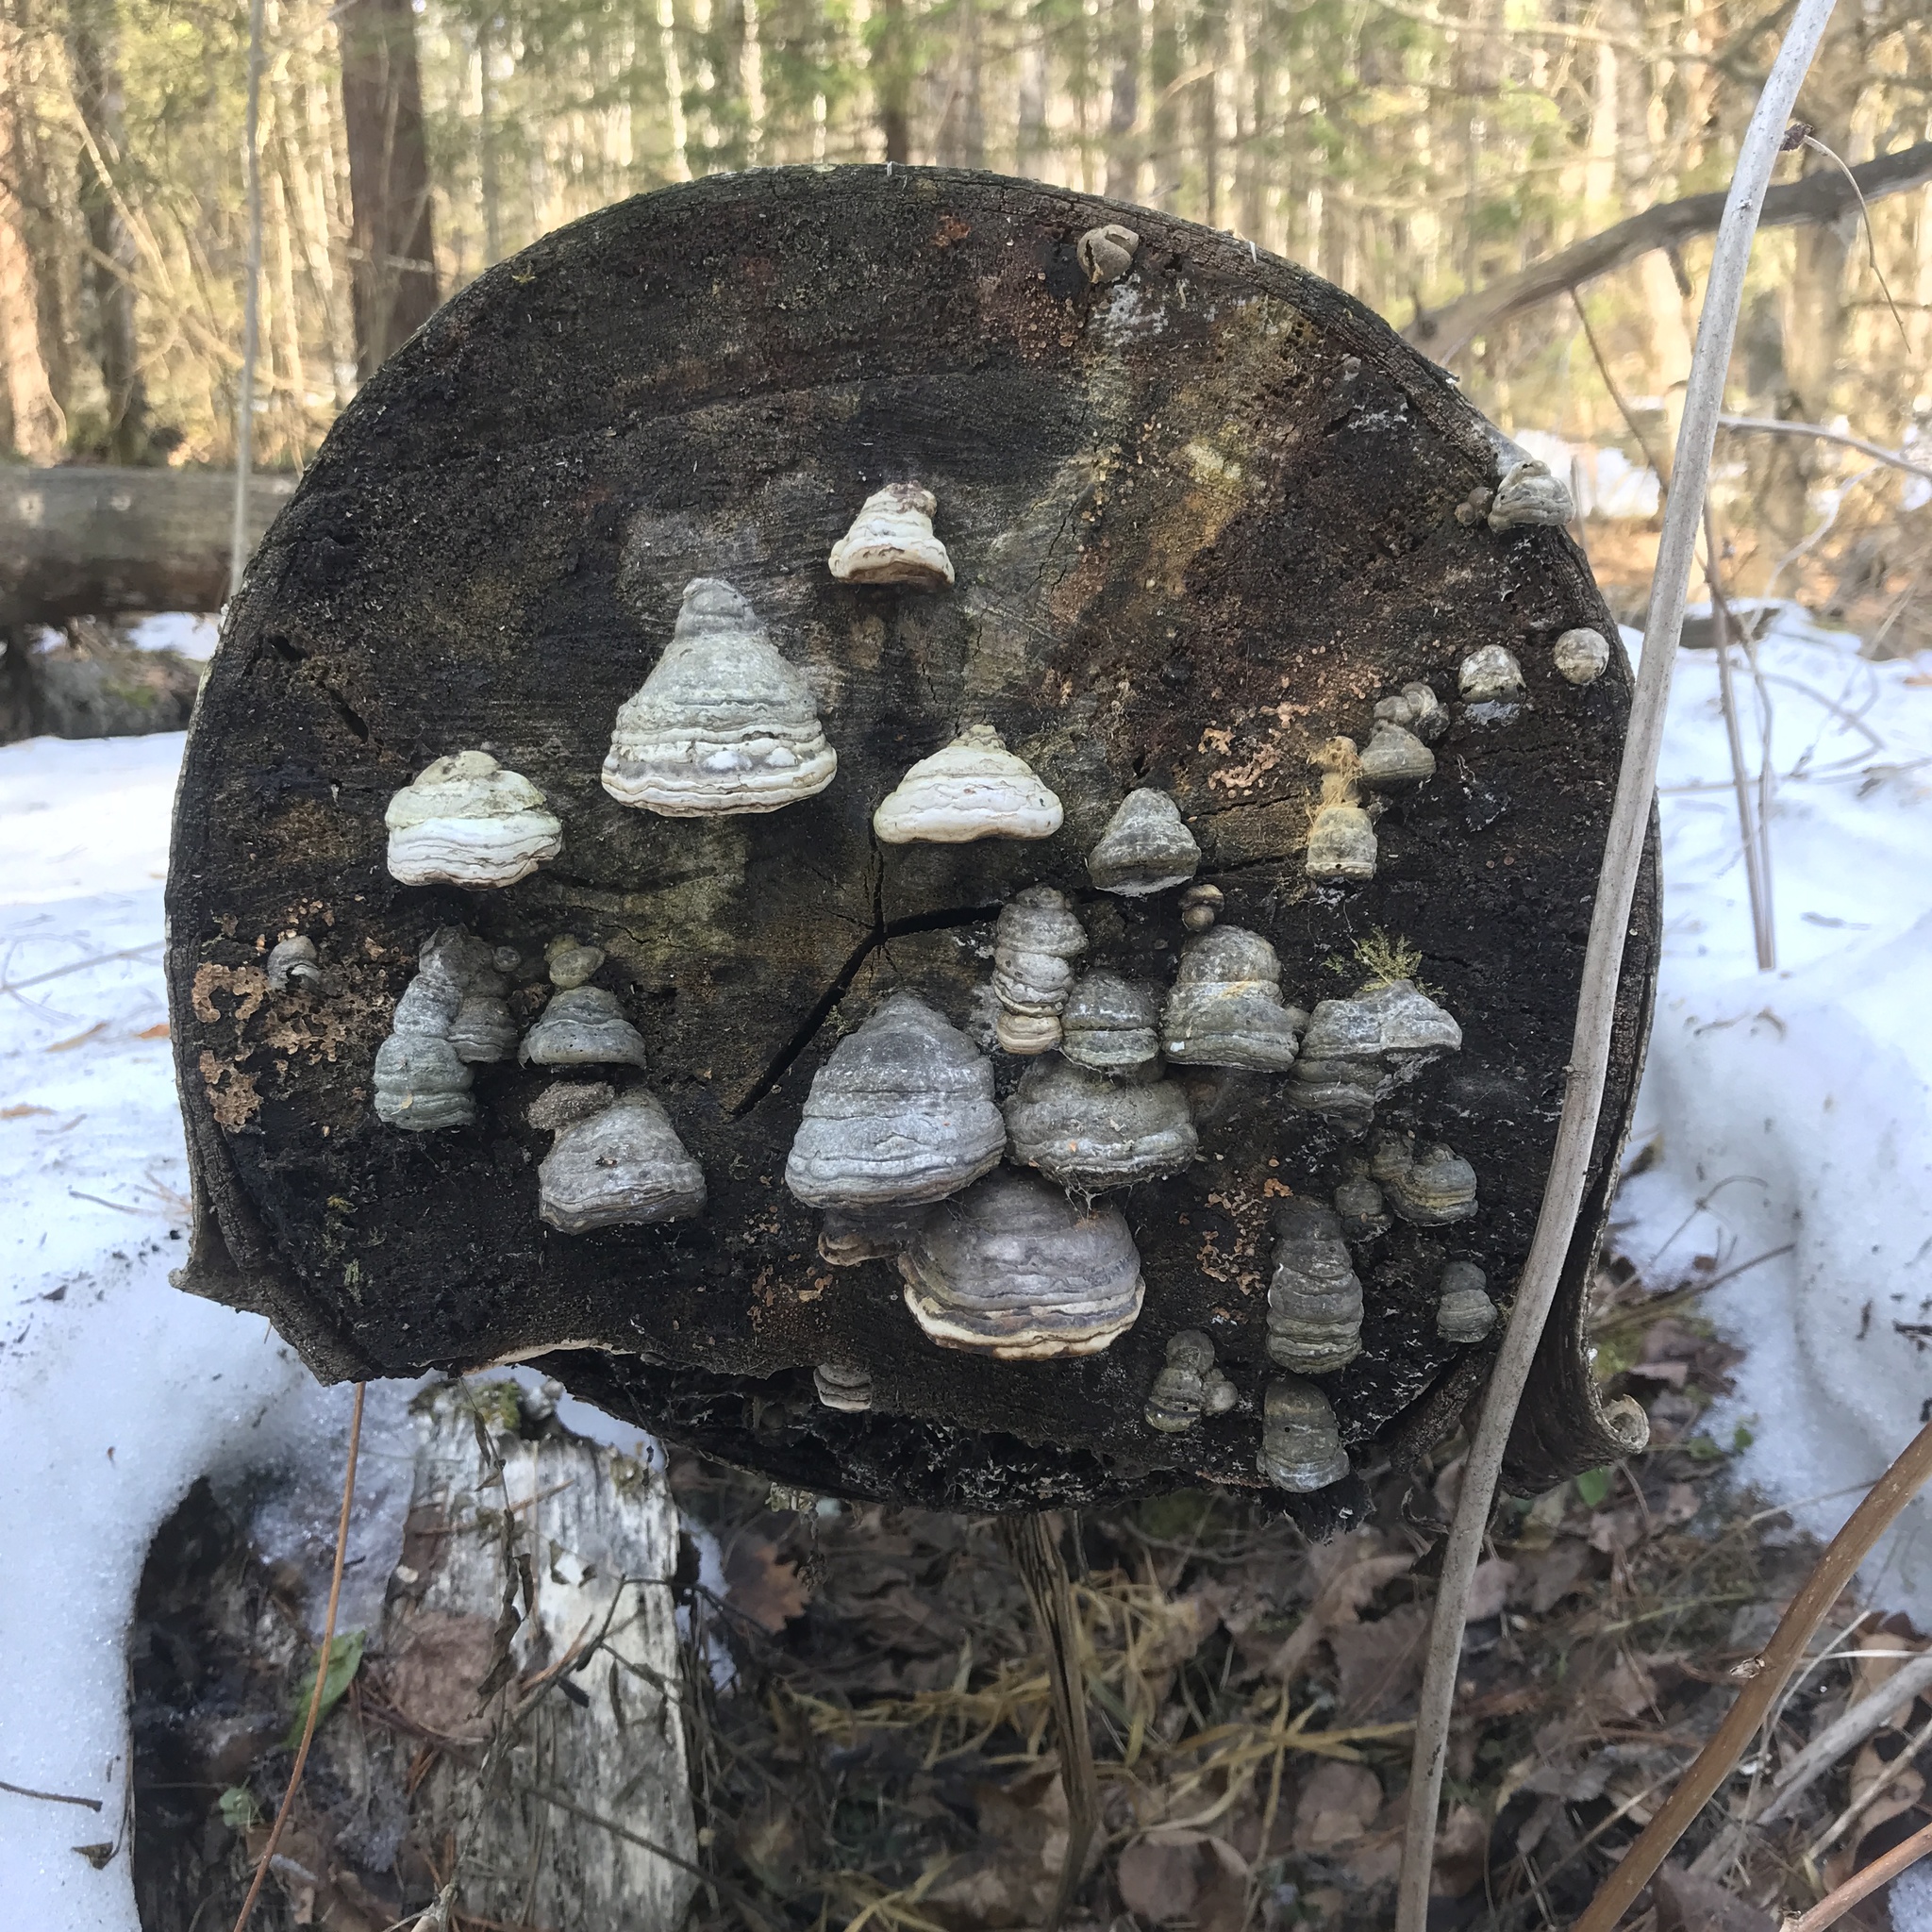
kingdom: Fungi
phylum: Basidiomycota
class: Agaricomycetes
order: Polyporales
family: Polyporaceae
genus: Fomes
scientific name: Fomes fomentarius
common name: Hoof fungus
